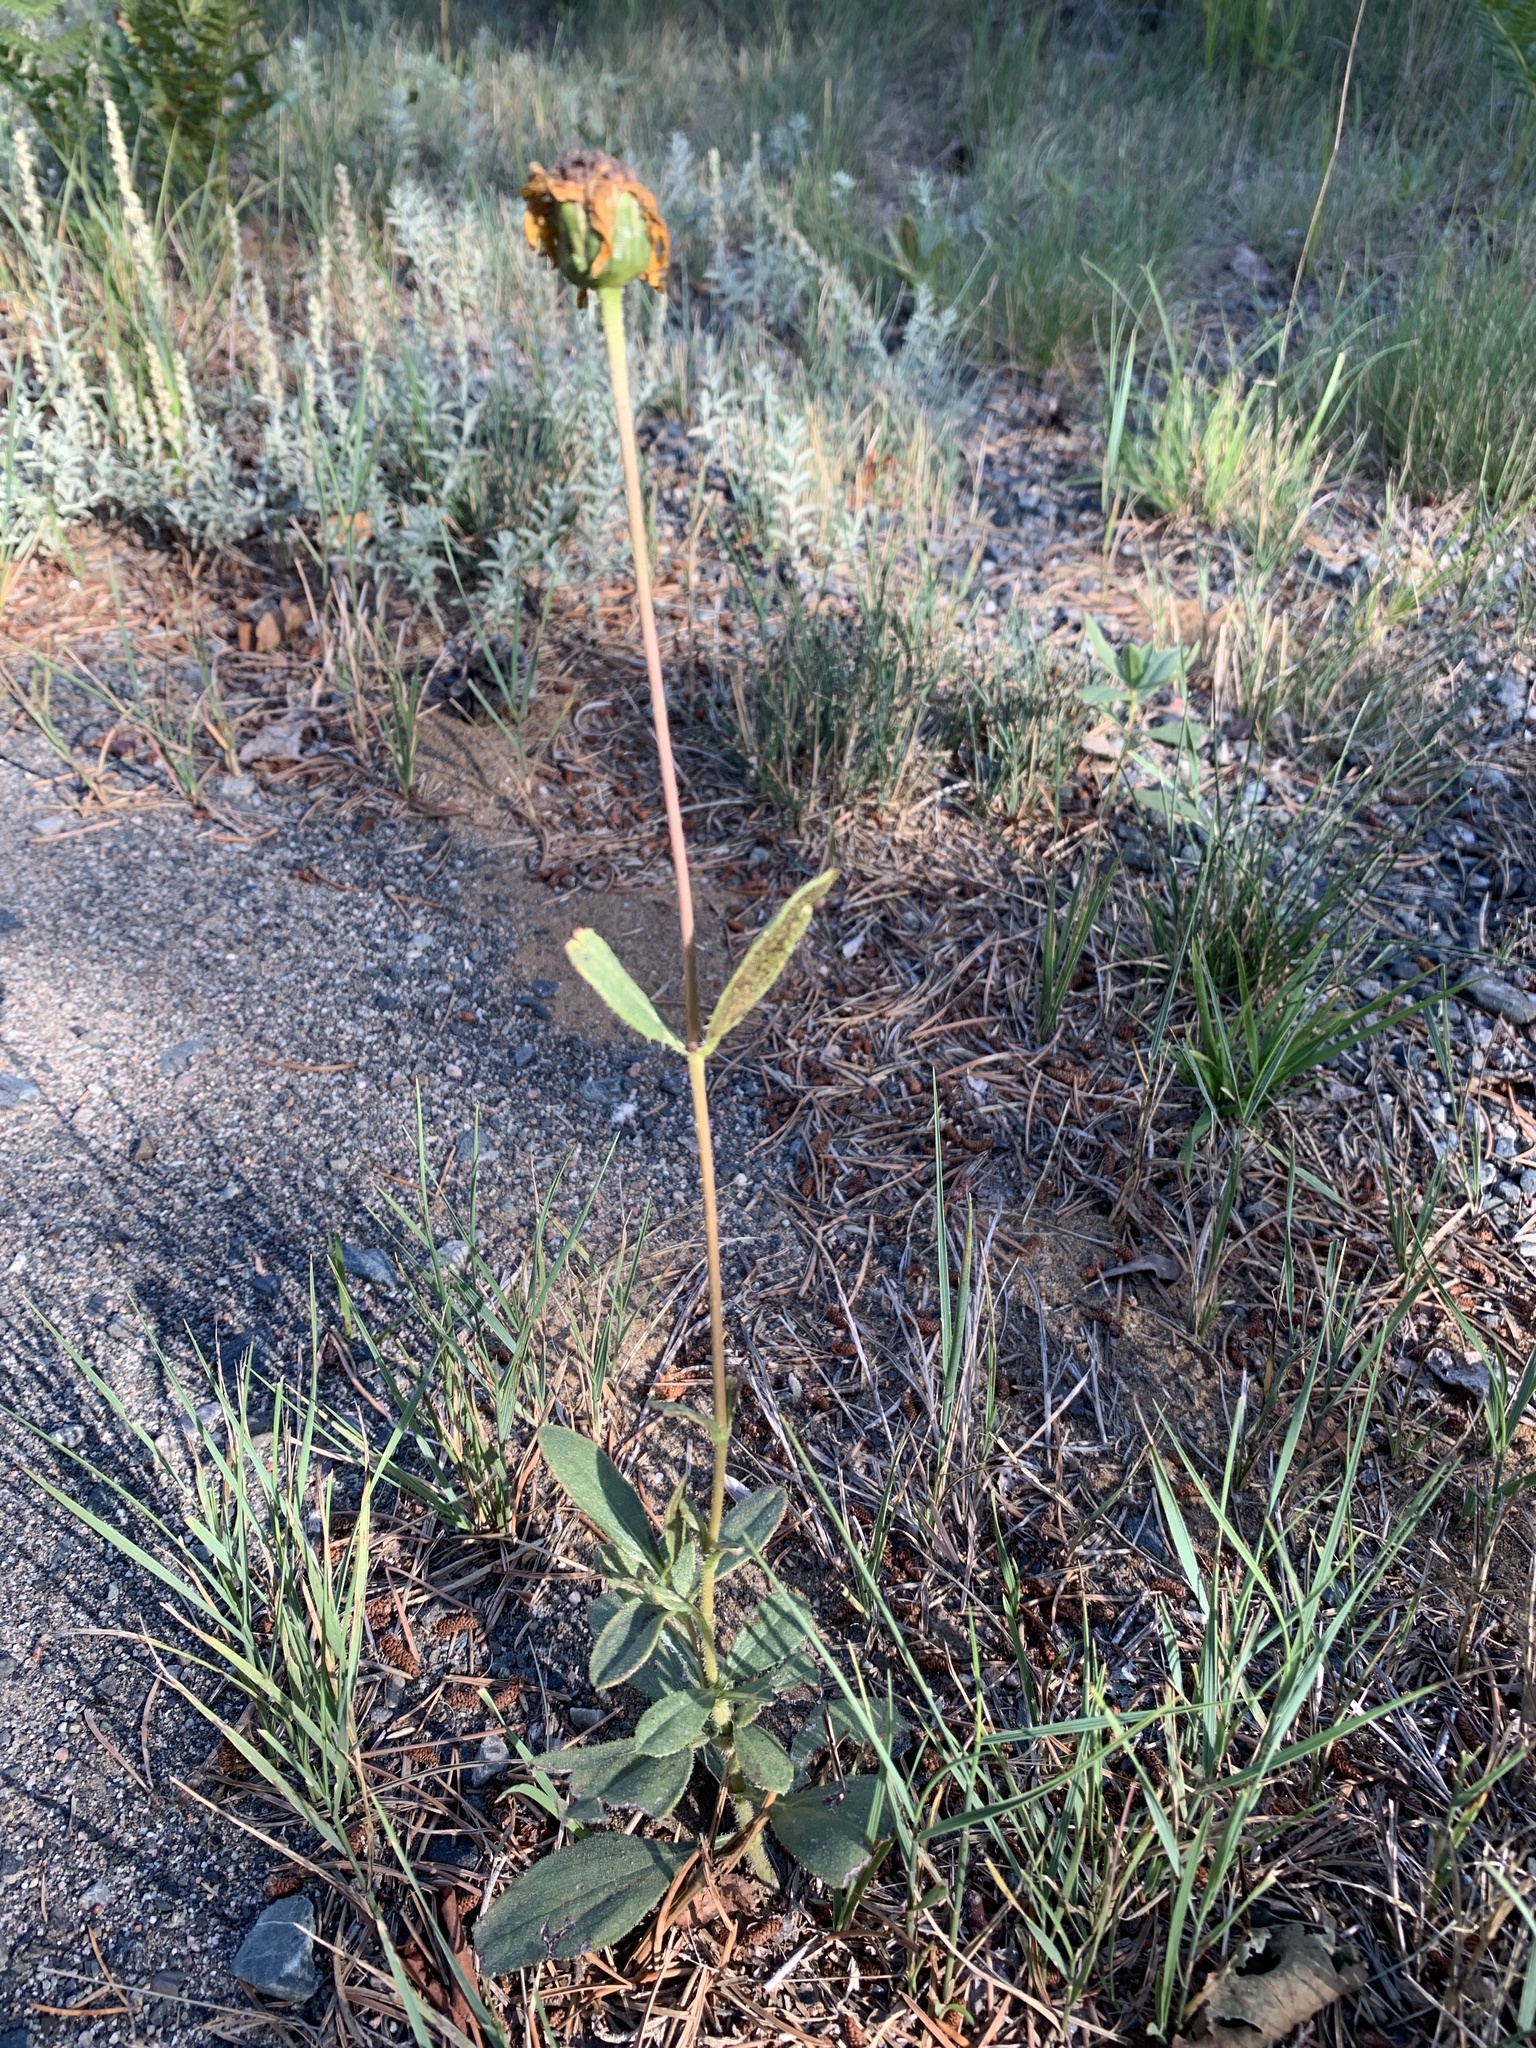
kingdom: Plantae
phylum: Tracheophyta
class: Magnoliopsida
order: Asterales
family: Asteraceae
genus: Helianthus
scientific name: Helianthus pauciflorus
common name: Stiff sunflower
